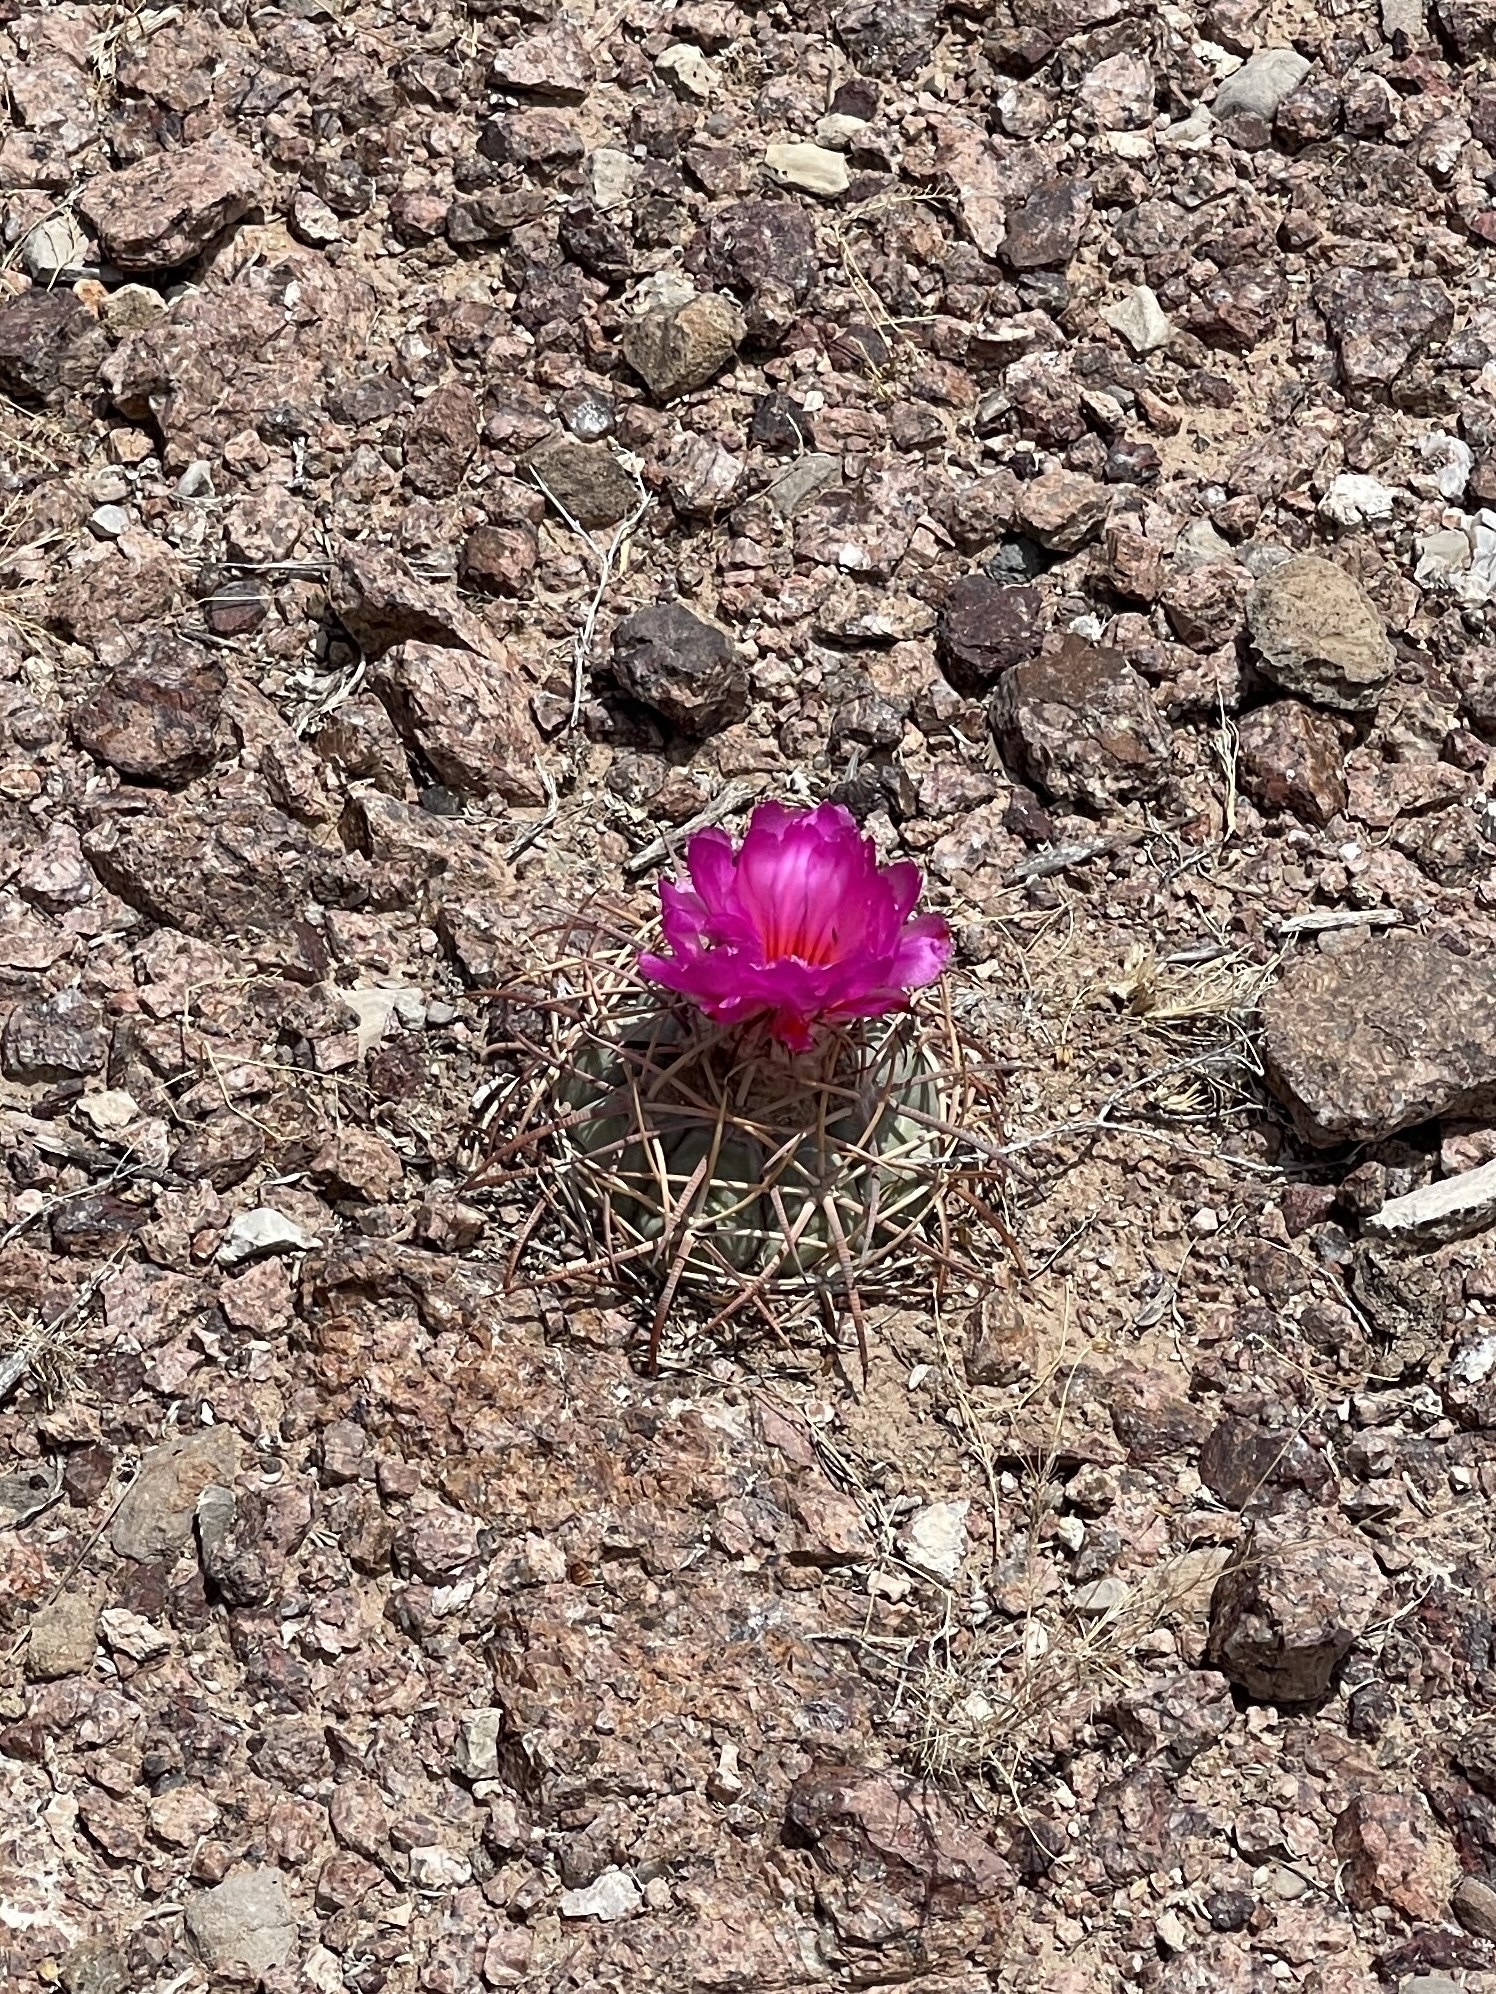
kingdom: Plantae
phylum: Tracheophyta
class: Magnoliopsida
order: Caryophyllales
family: Cactaceae
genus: Echinocactus
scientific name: Echinocactus horizonthalonius
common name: Devilshead
